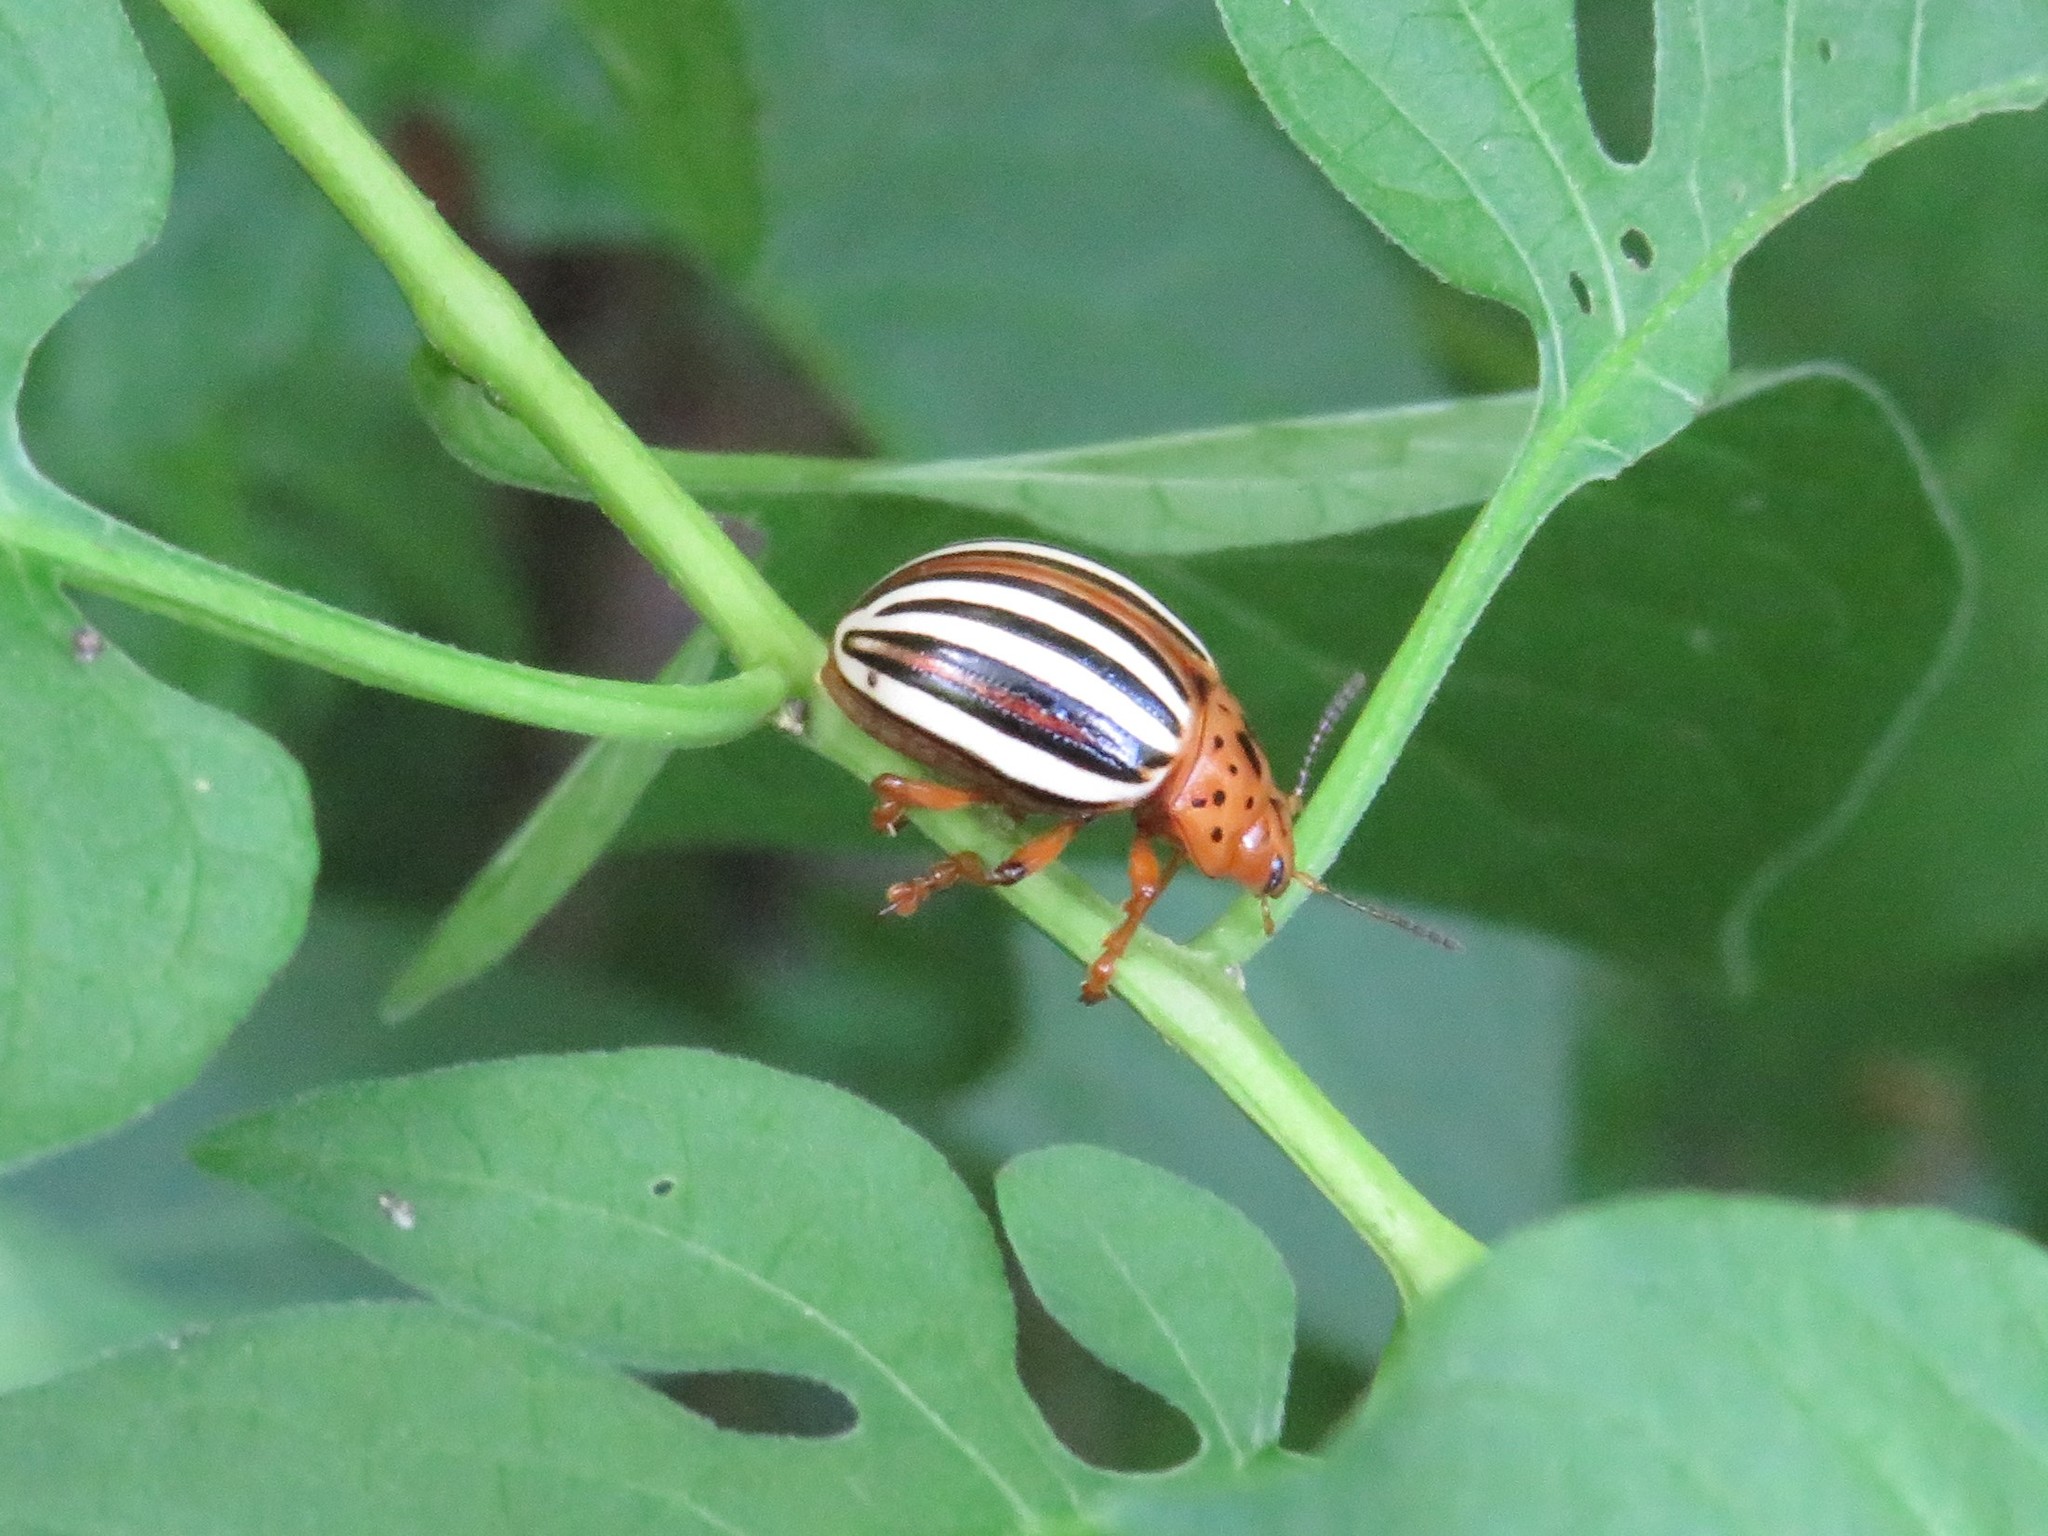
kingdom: Animalia
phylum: Arthropoda
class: Insecta
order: Coleoptera
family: Chrysomelidae
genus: Leptinotarsa
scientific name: Leptinotarsa juncta
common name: False potato beetle
